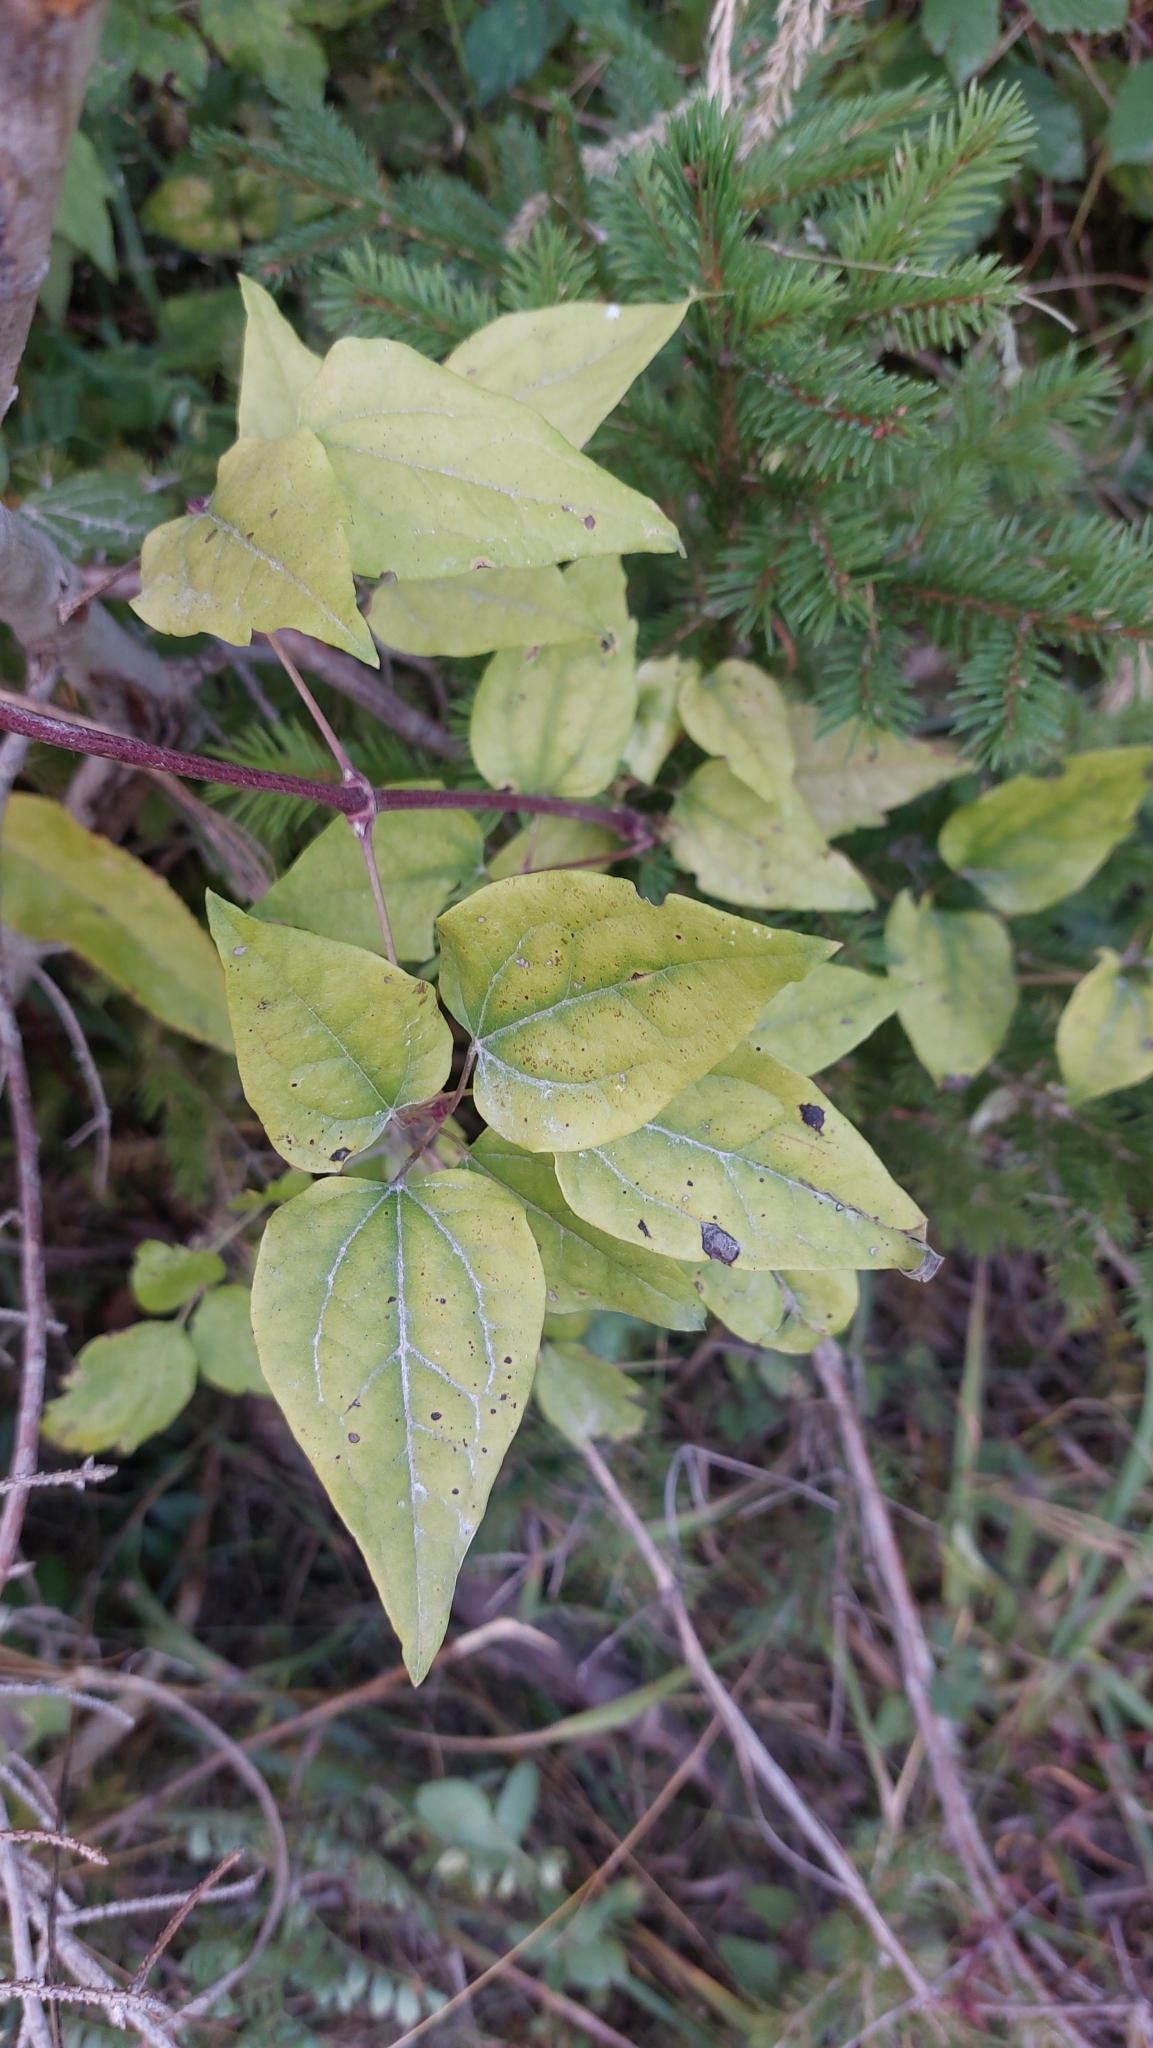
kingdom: Plantae
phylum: Tracheophyta
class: Magnoliopsida
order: Ranunculales
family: Ranunculaceae
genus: Clematis
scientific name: Clematis vitalba
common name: Evergreen clematis
